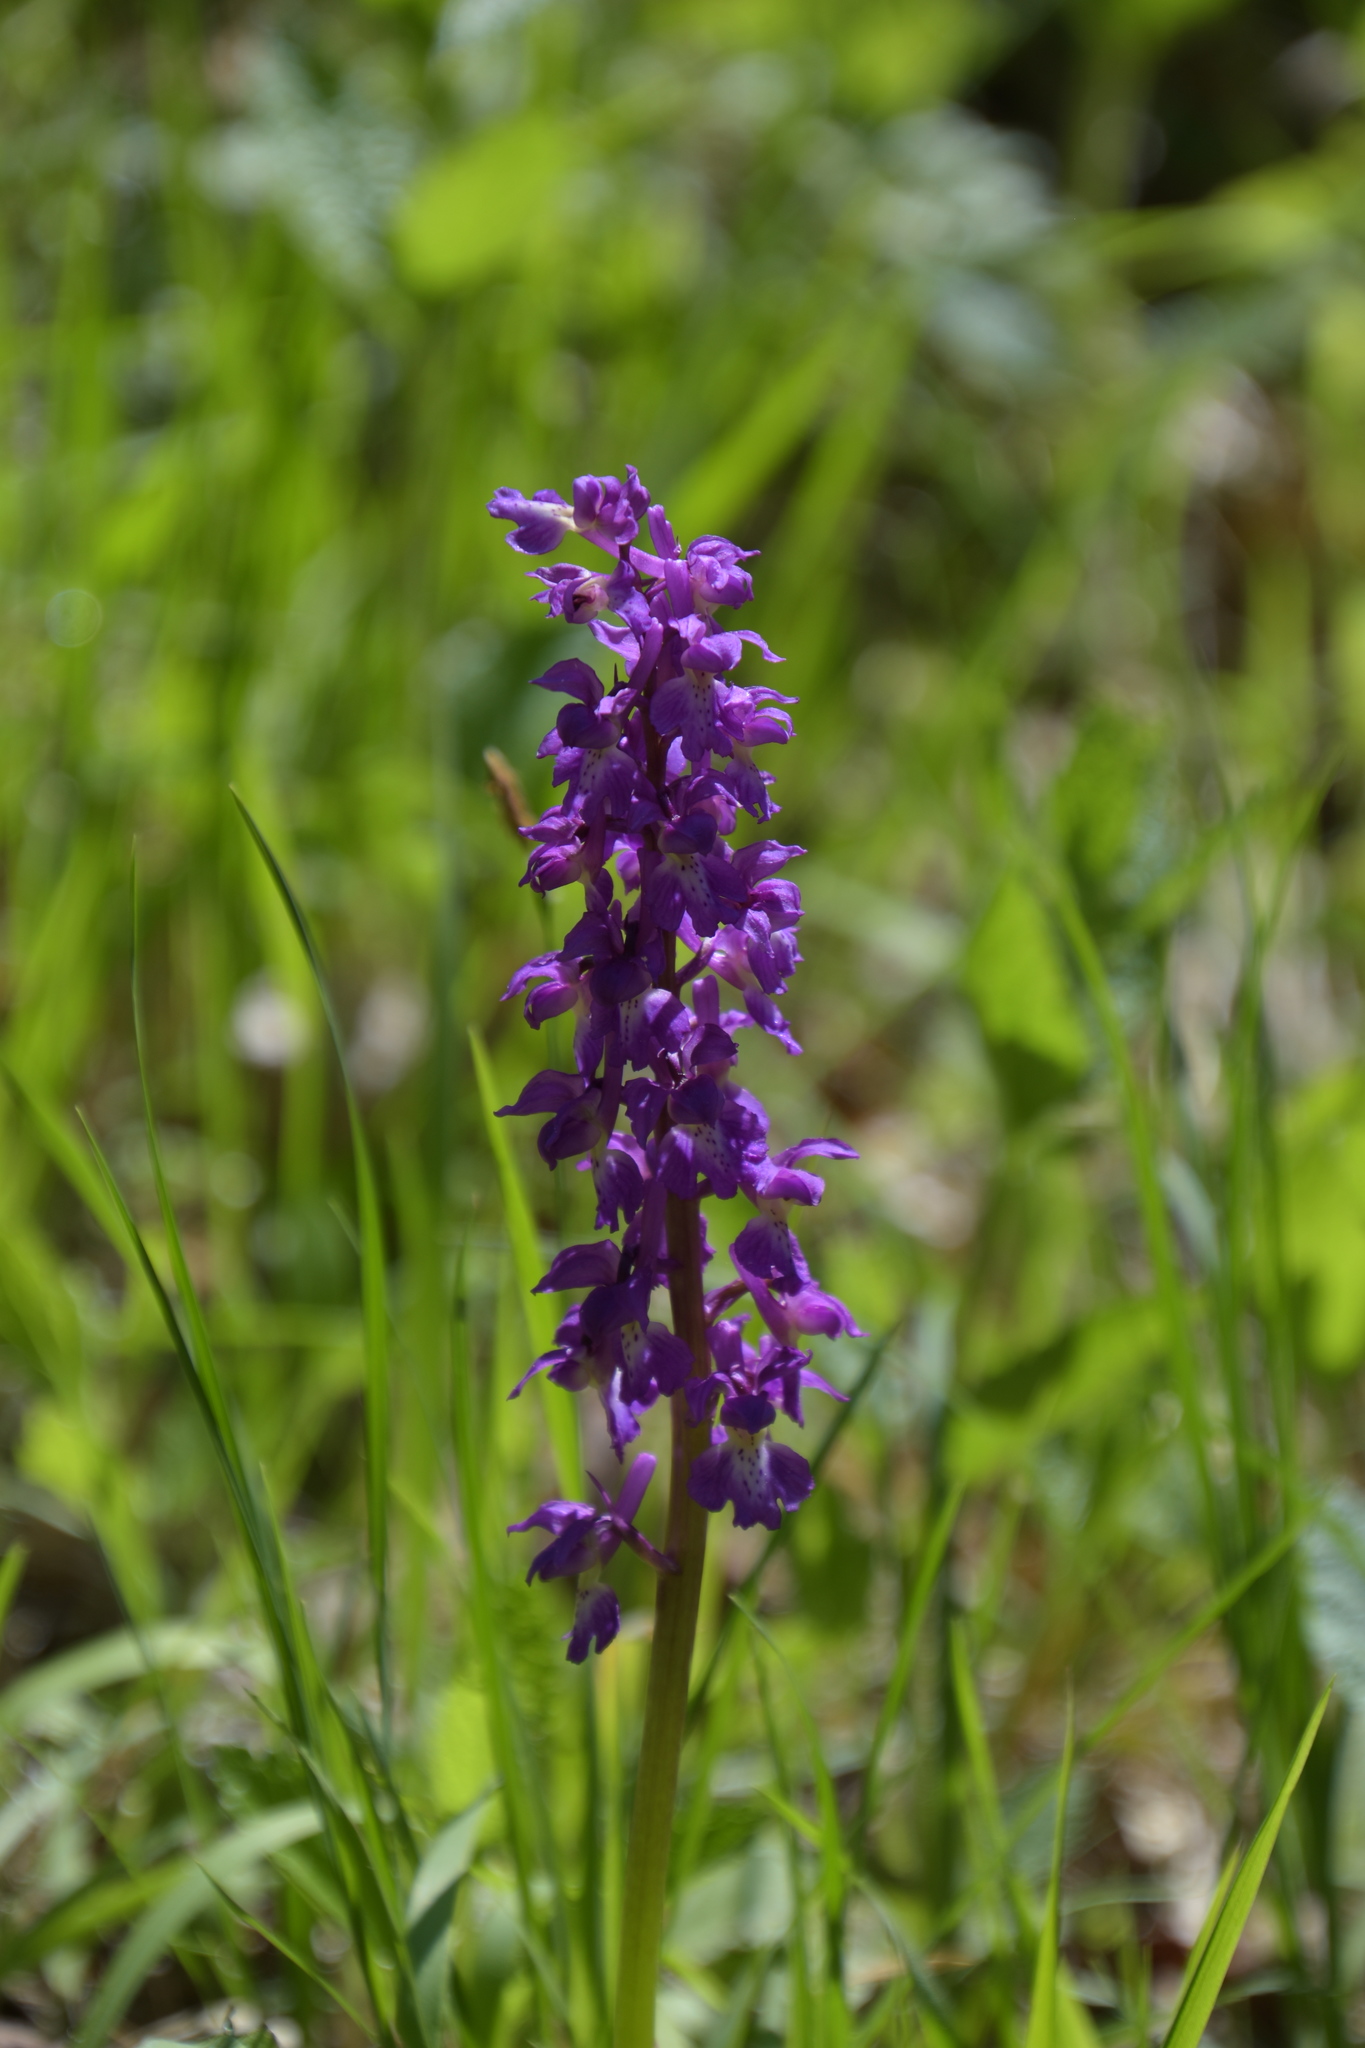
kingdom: Plantae
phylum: Tracheophyta
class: Liliopsida
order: Asparagales
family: Orchidaceae
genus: Orchis
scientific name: Orchis mascula
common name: Early-purple orchid
